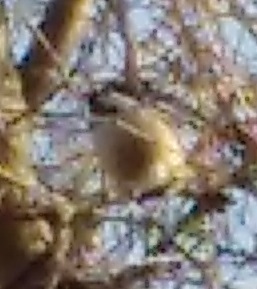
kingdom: Animalia
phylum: Chordata
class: Aves
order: Passeriformes
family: Paridae
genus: Parus
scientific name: Parus major
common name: Great tit
